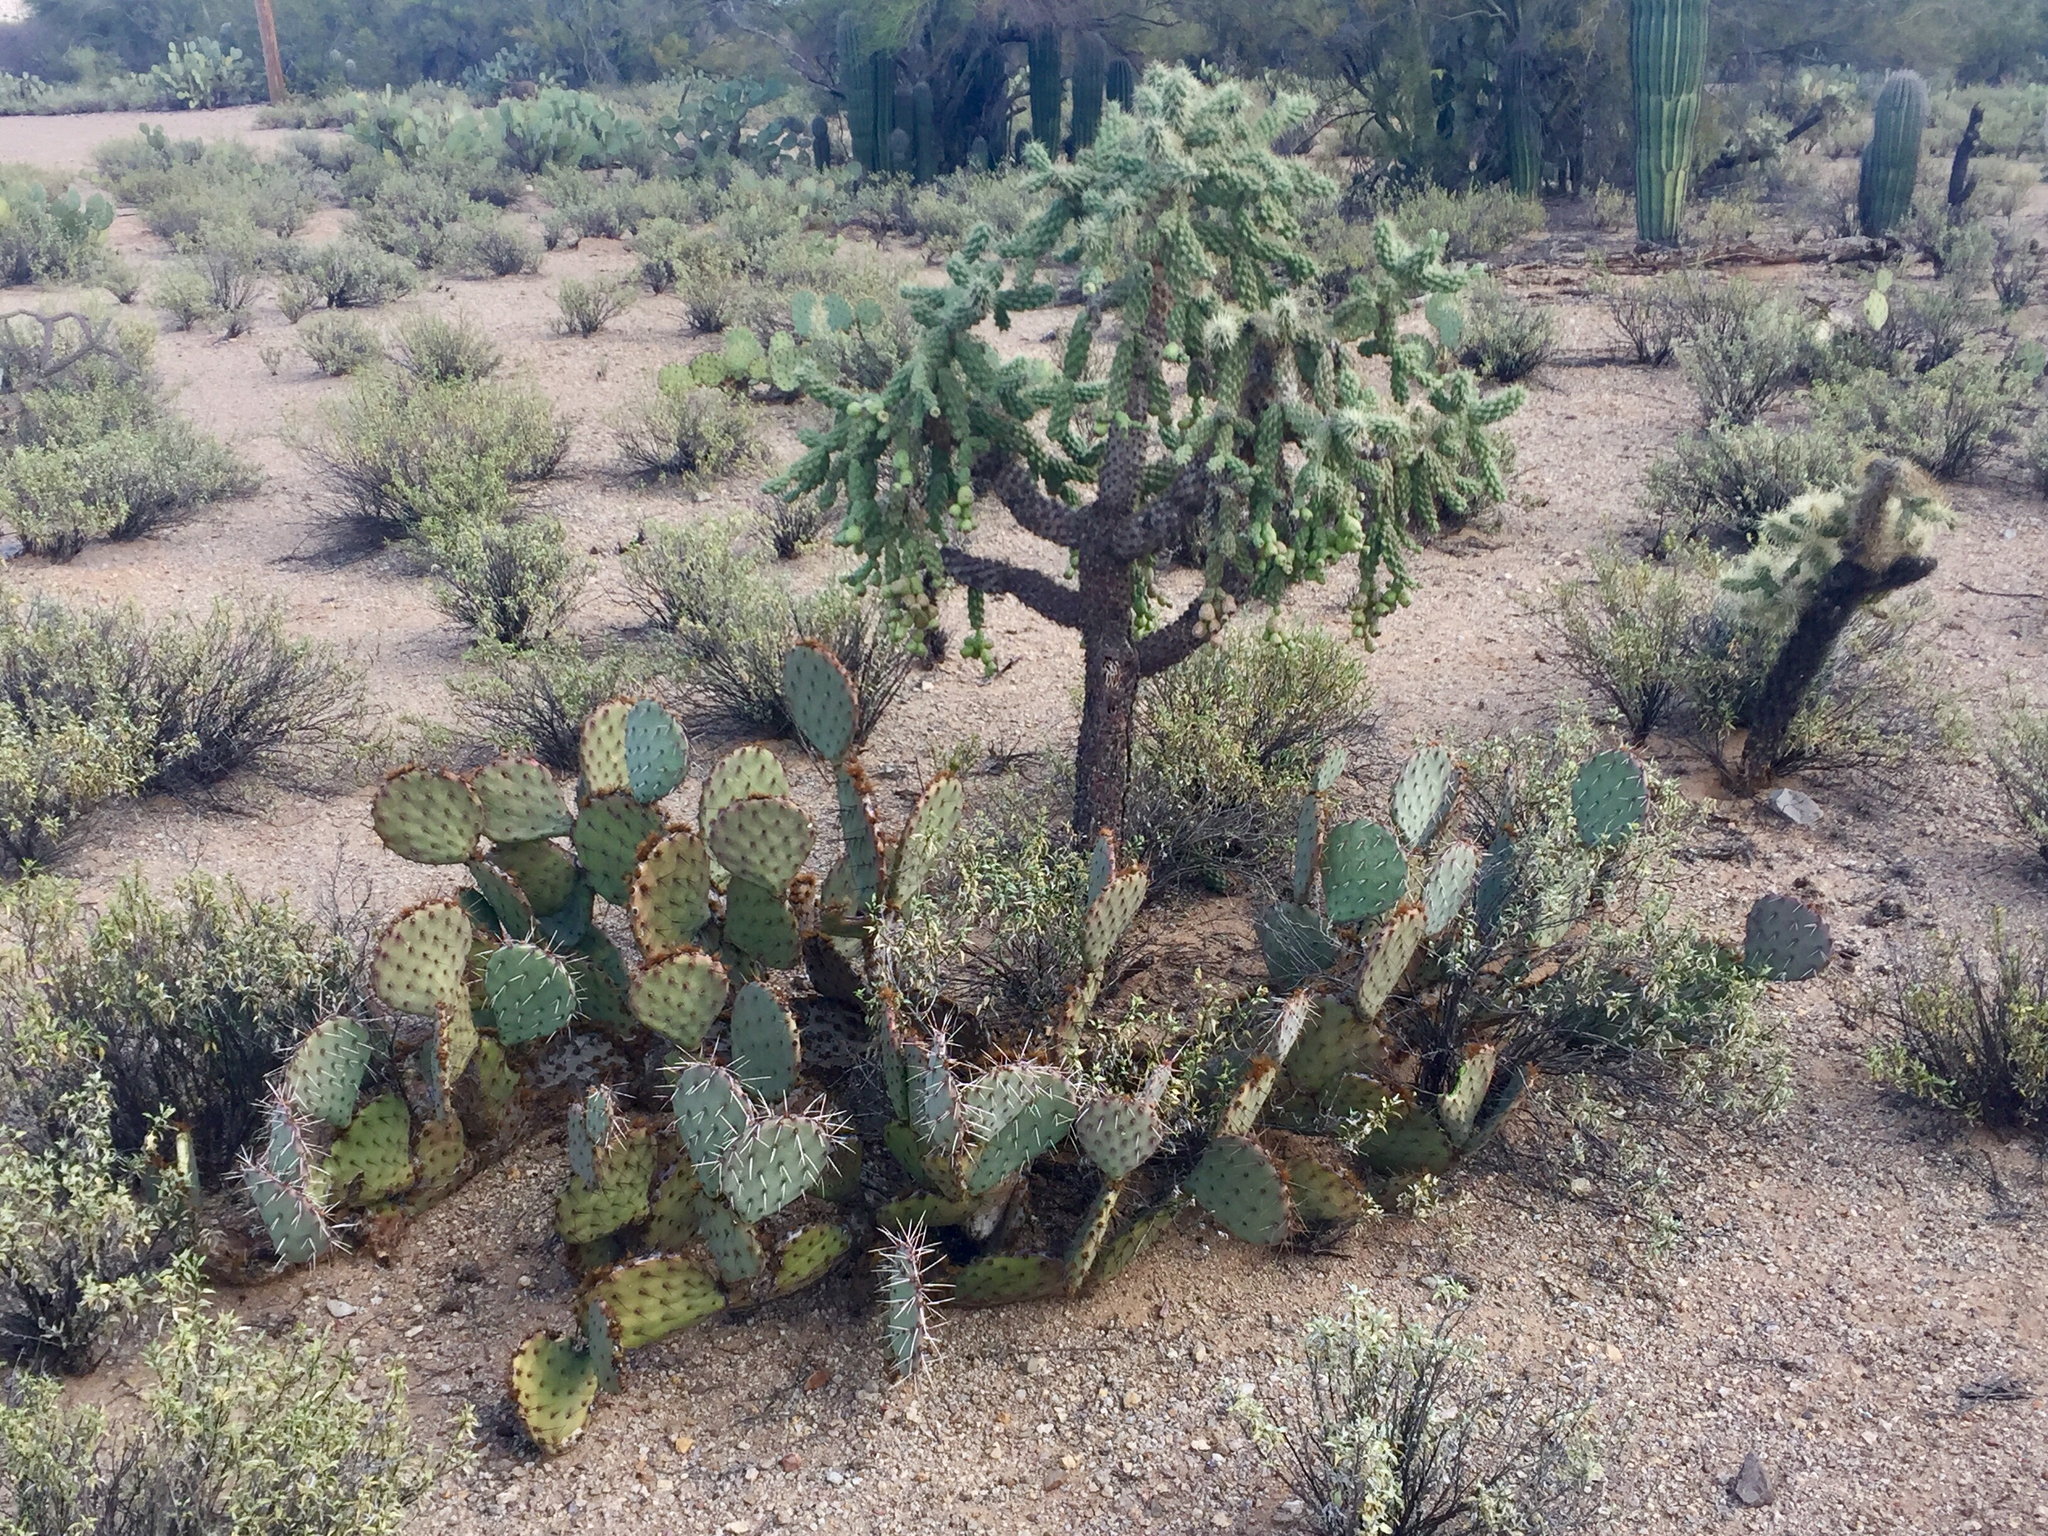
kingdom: Plantae
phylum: Tracheophyta
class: Magnoliopsida
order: Caryophyllales
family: Cactaceae
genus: Opuntia
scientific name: Opuntia engelmannii
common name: Cactus-apple
